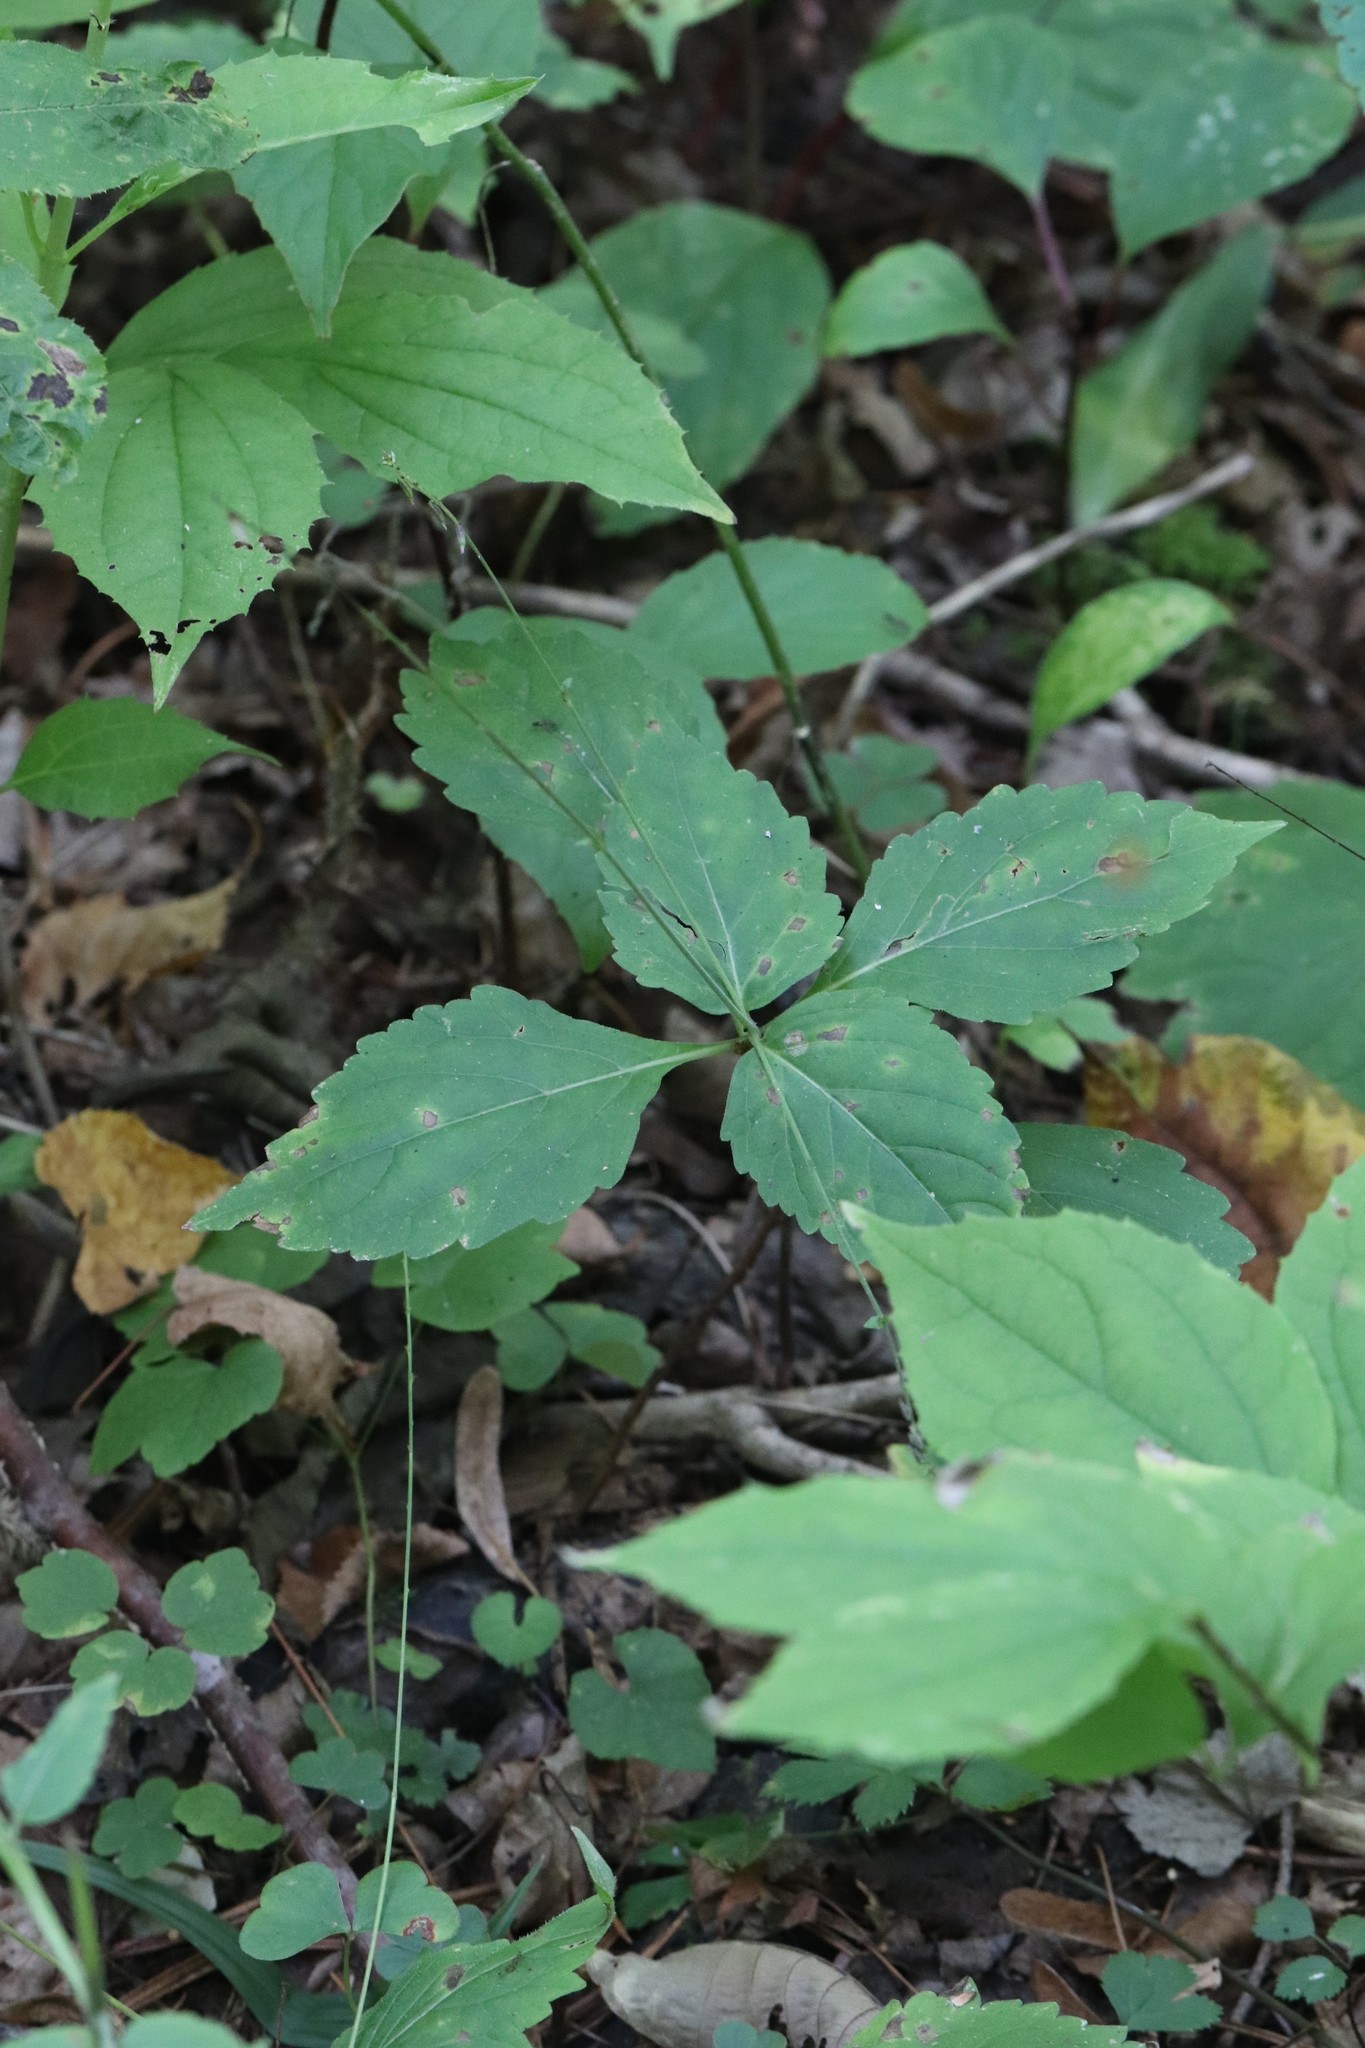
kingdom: Plantae
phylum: Tracheophyta
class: Magnoliopsida
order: Lamiales
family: Phrymaceae
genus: Phryma
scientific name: Phryma nana
